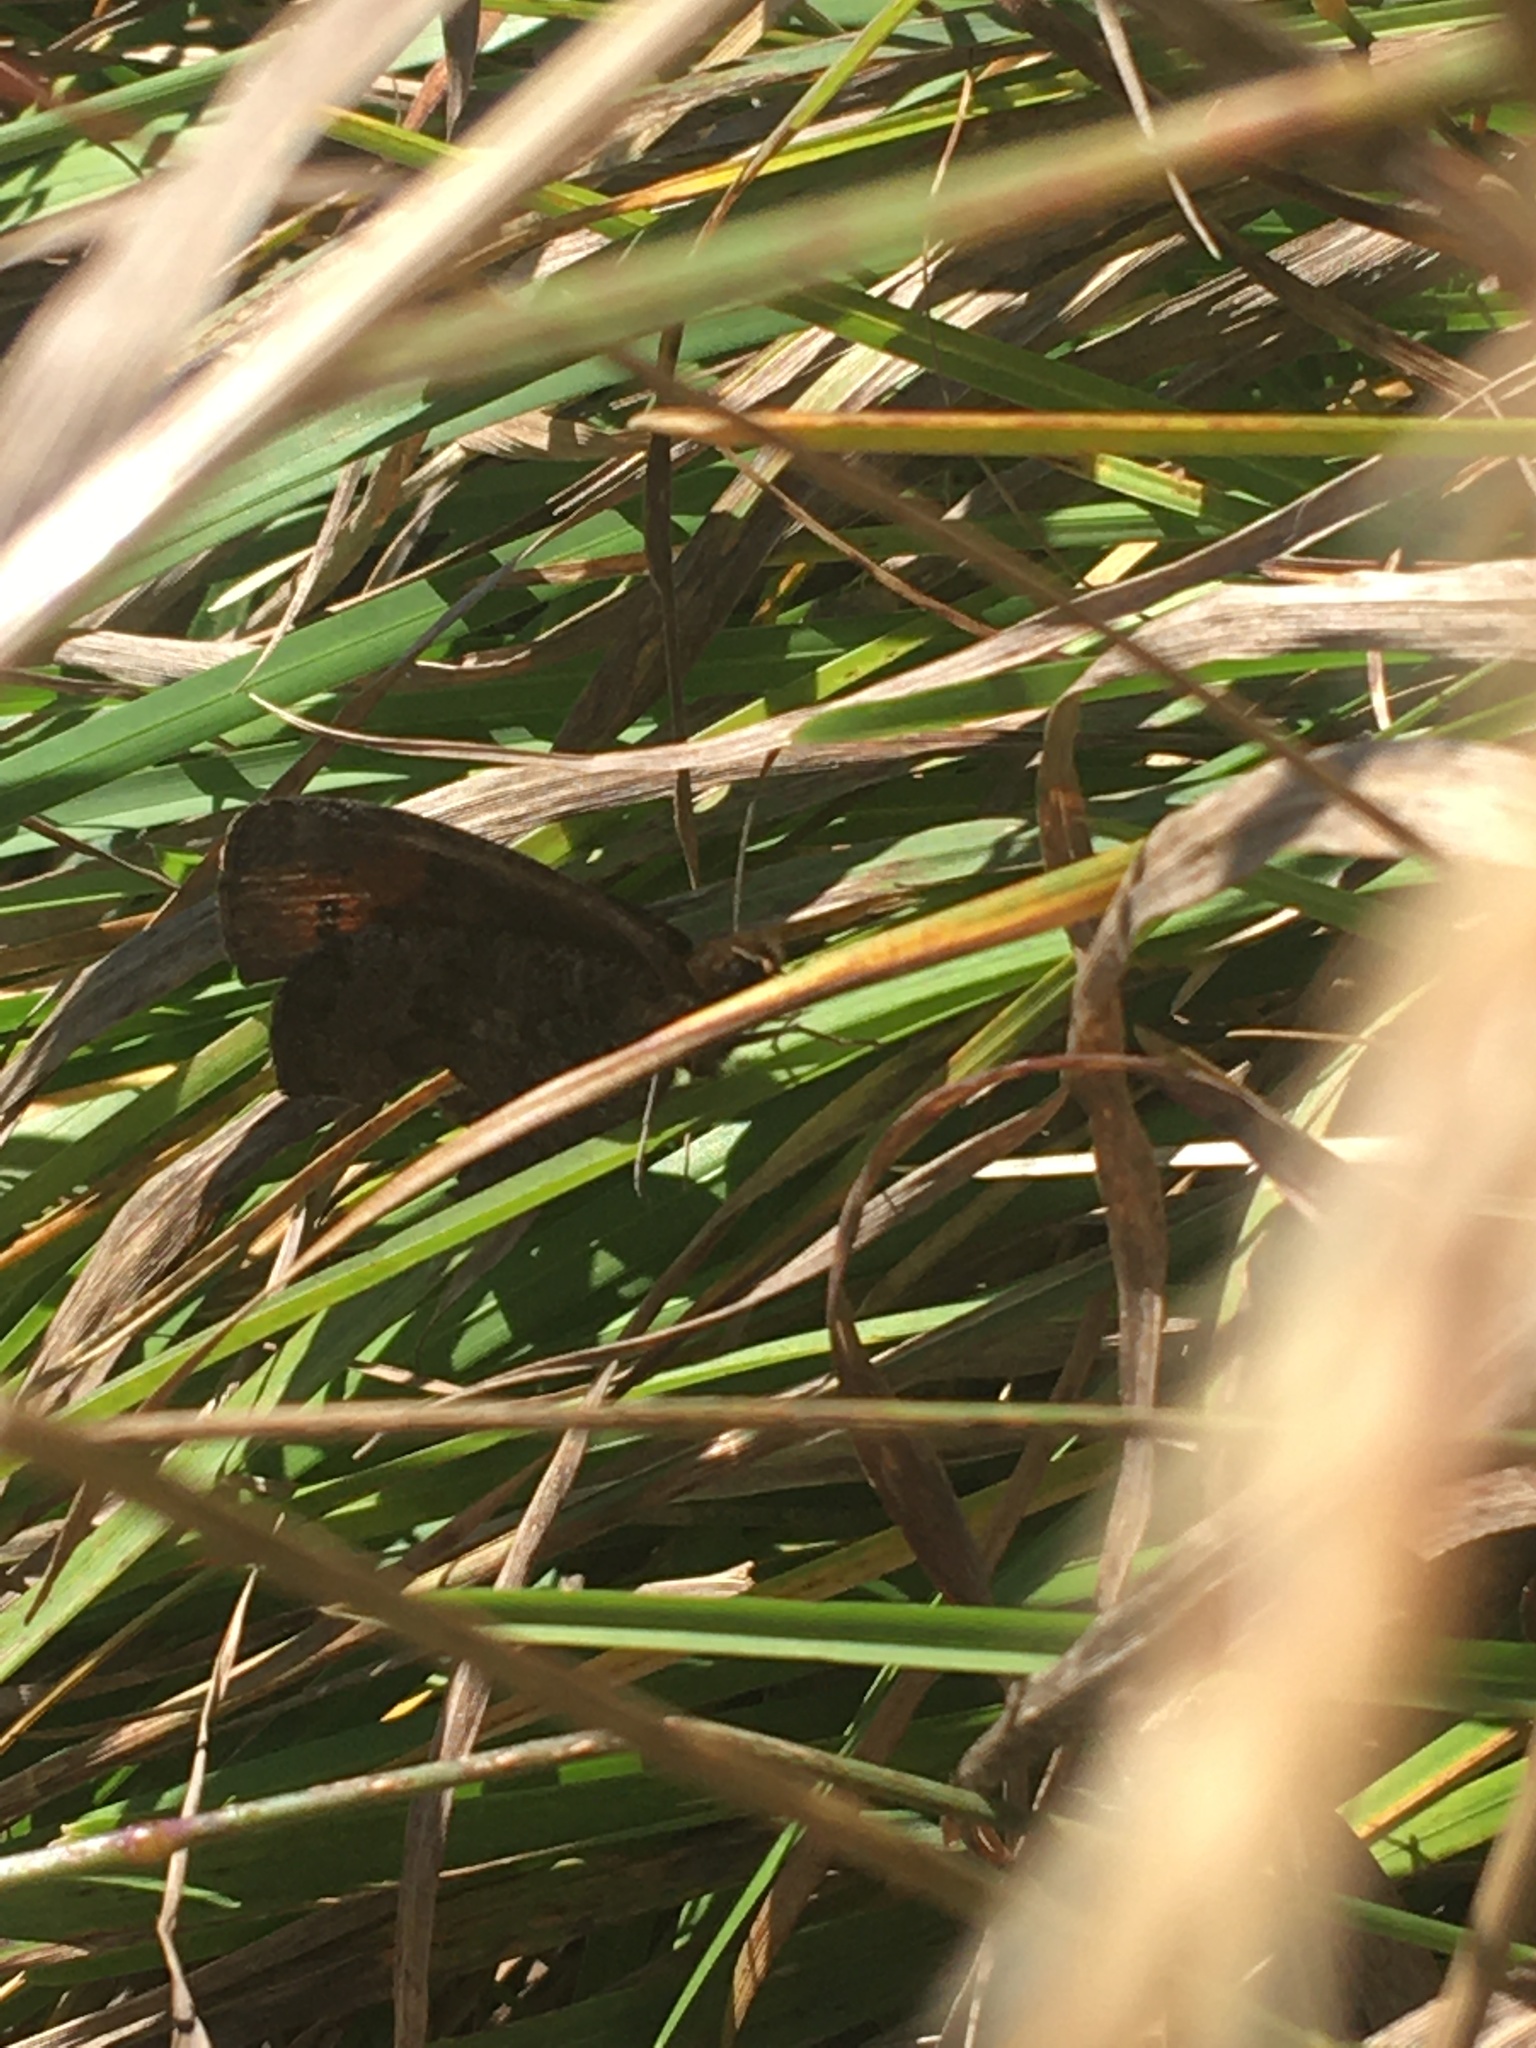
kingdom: Animalia
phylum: Arthropoda
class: Insecta
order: Lepidoptera
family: Nymphalidae
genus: Erebia
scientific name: Erebia pronoe
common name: Water ringlet
